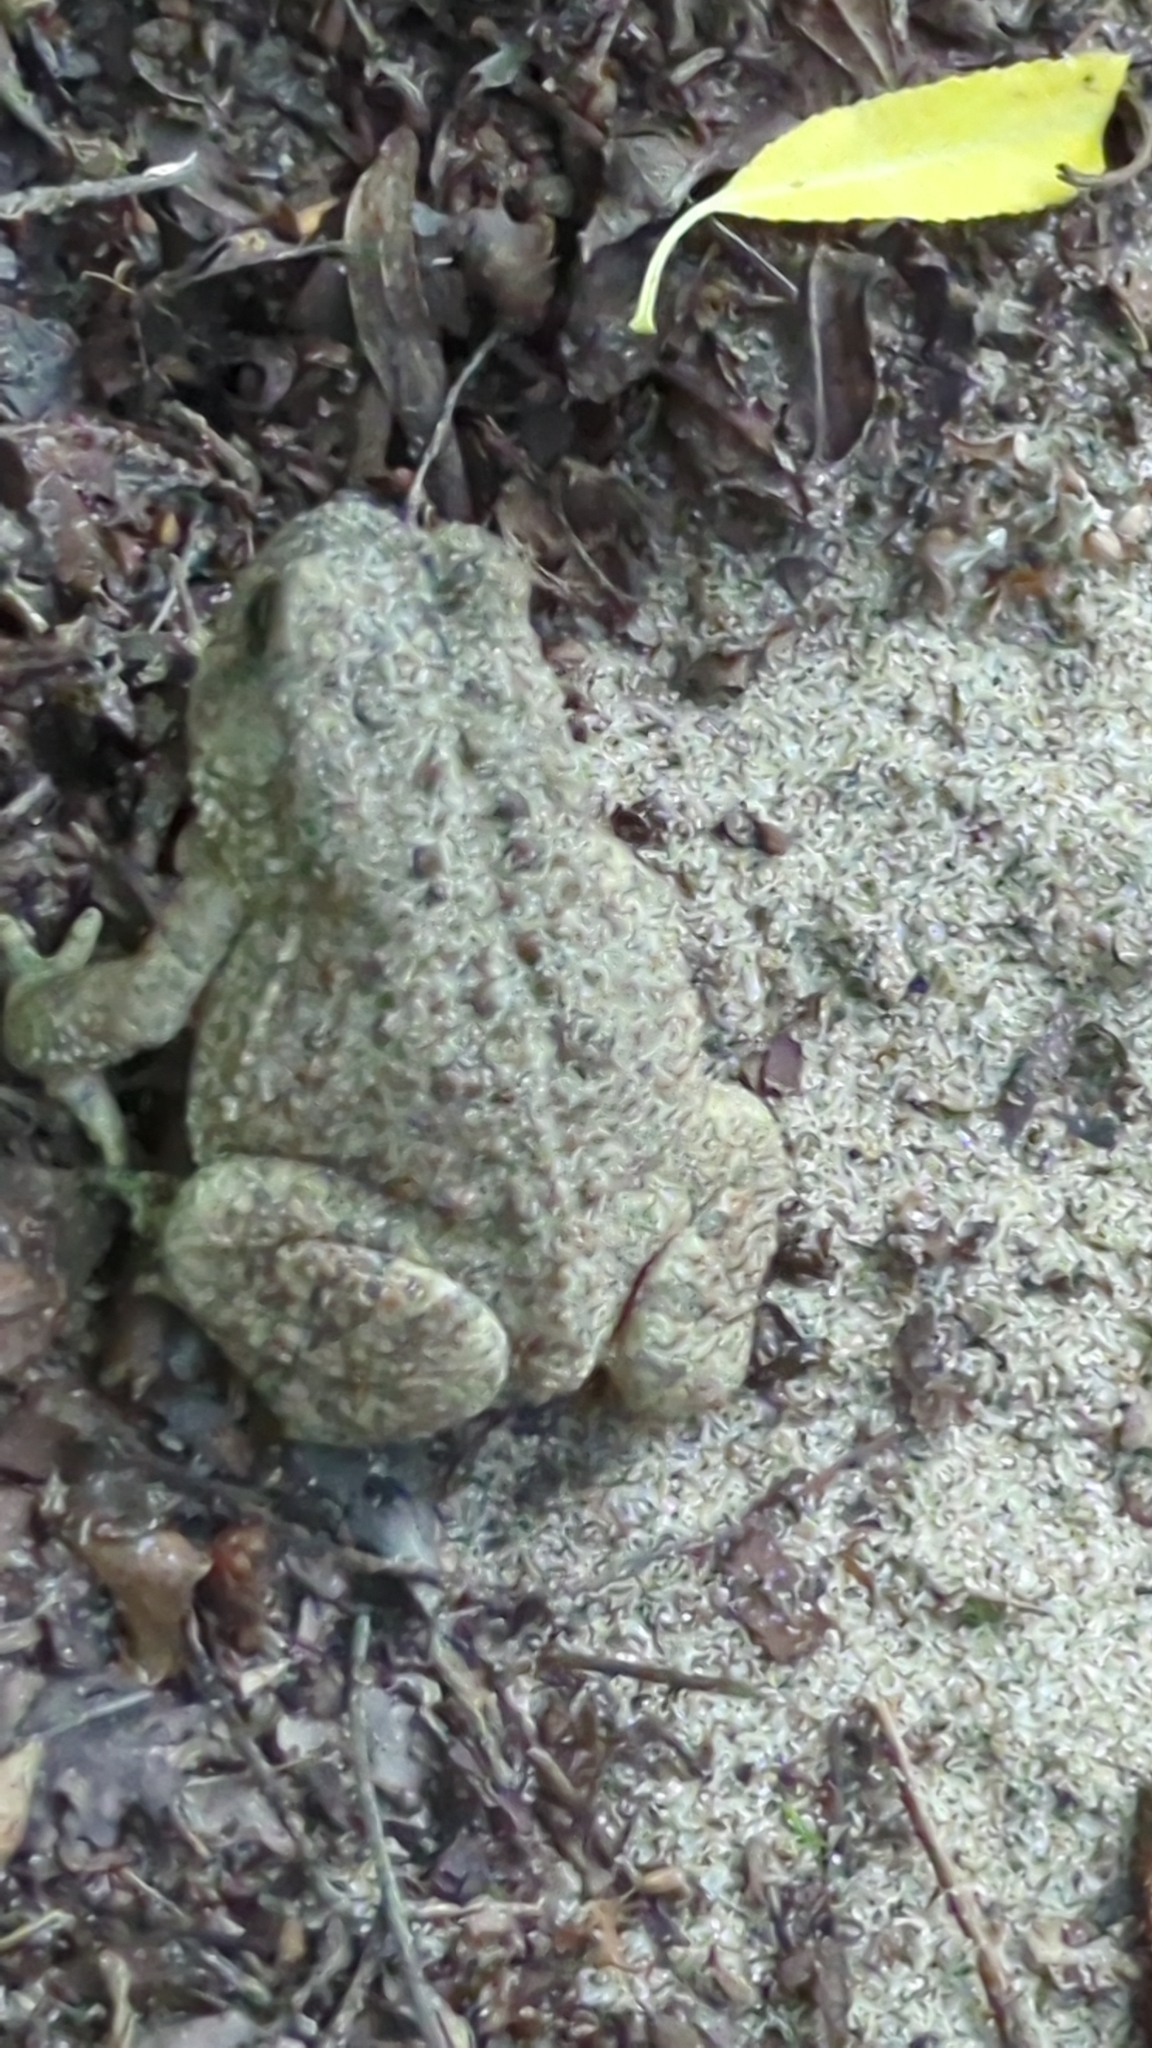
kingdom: Animalia
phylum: Chordata
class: Amphibia
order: Anura
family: Bufonidae
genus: Anaxyrus
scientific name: Anaxyrus woodhousii
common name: Woodhouse's toad
